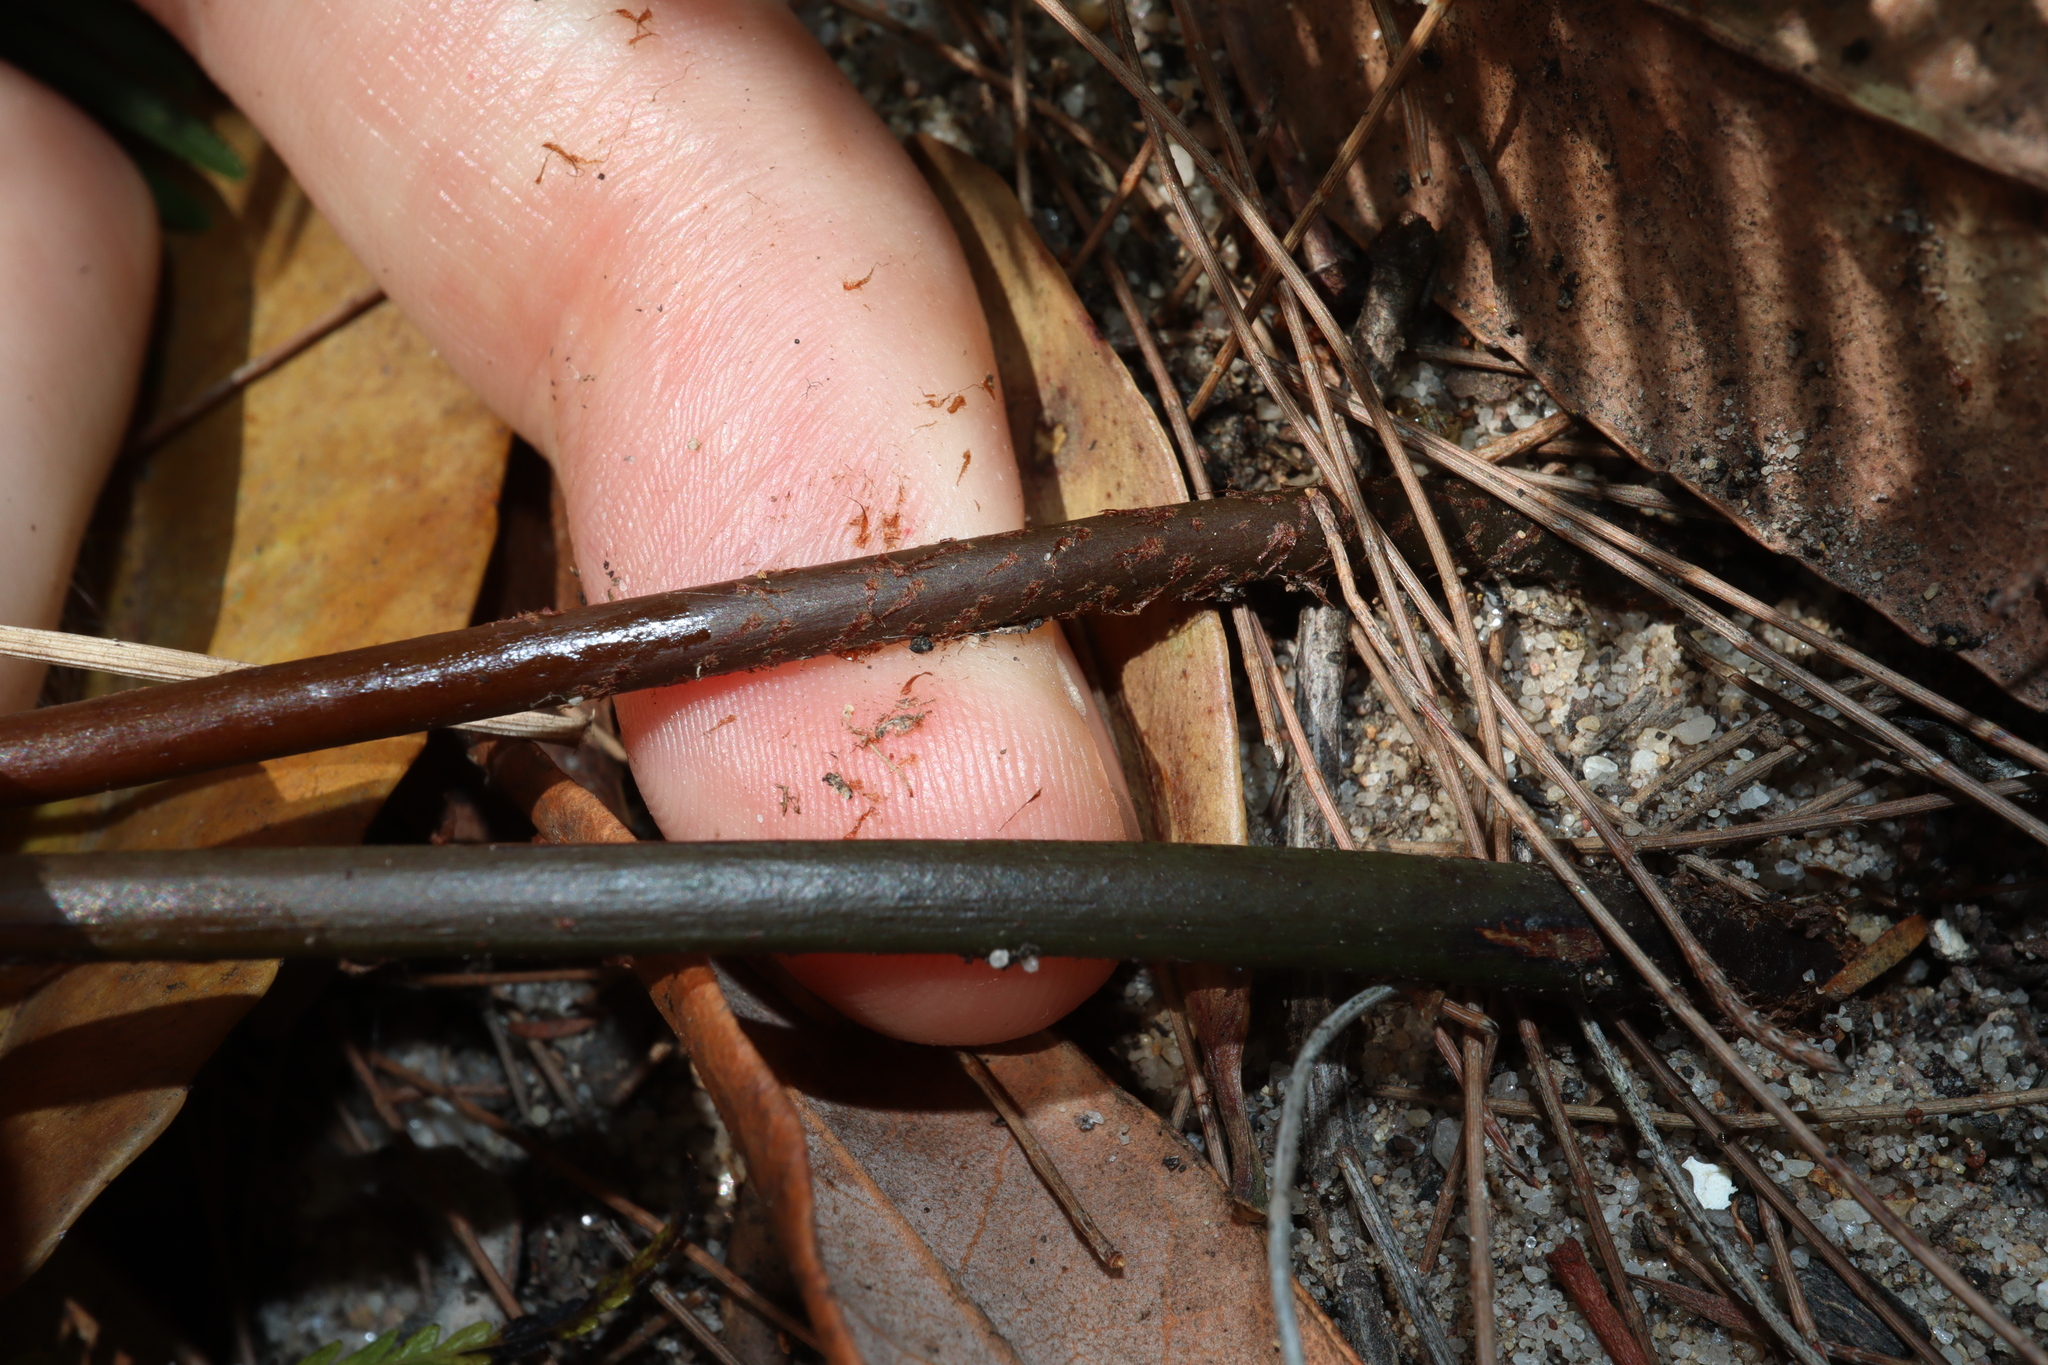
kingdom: Plantae
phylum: Tracheophyta
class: Polypodiopsida
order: Gleicheniales
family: Gleicheniaceae
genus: Sticherus
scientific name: Sticherus flabellatus
